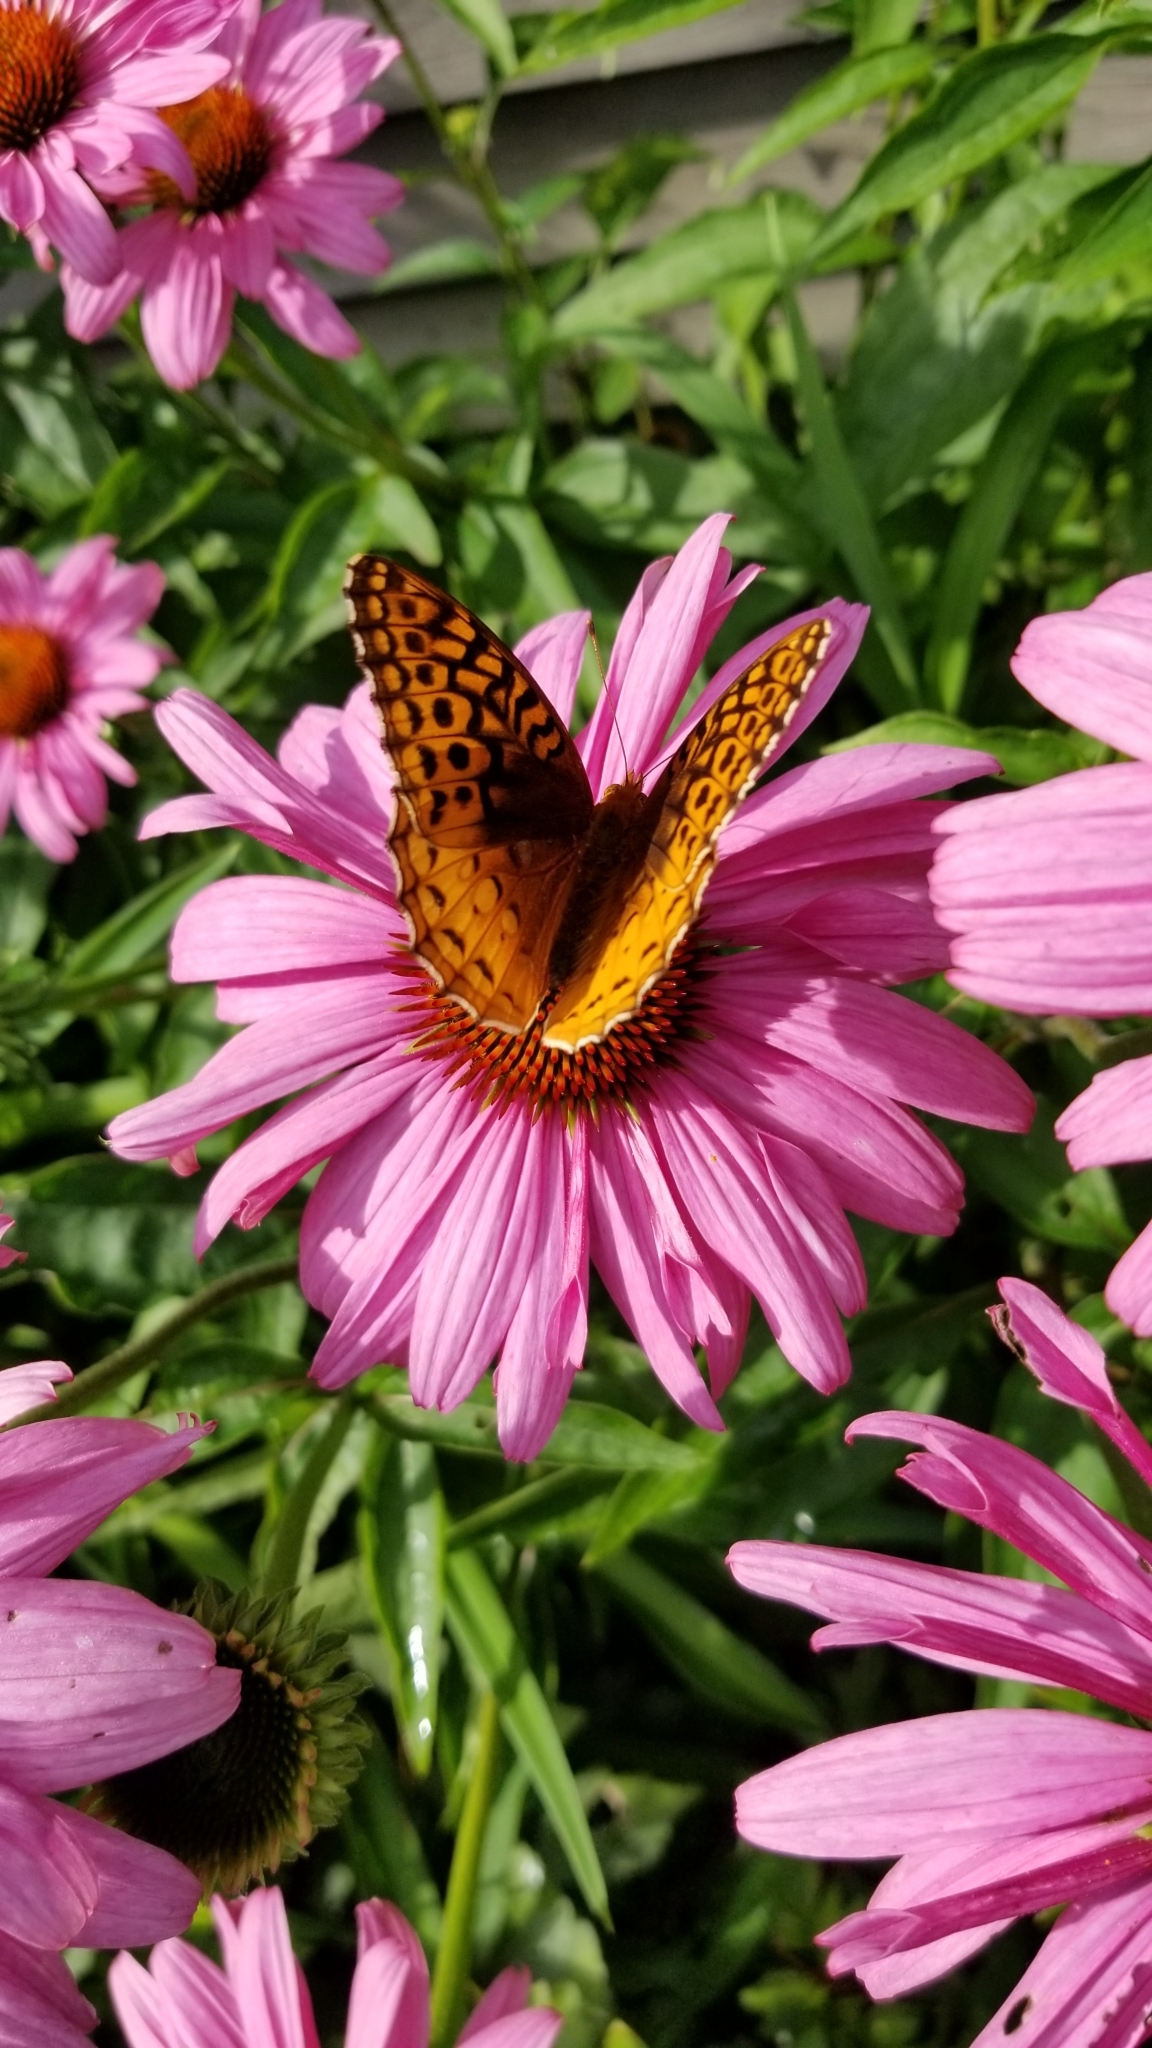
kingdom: Animalia
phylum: Arthropoda
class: Insecta
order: Lepidoptera
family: Nymphalidae
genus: Speyeria
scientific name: Speyeria cybele
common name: Great spangled fritillary
